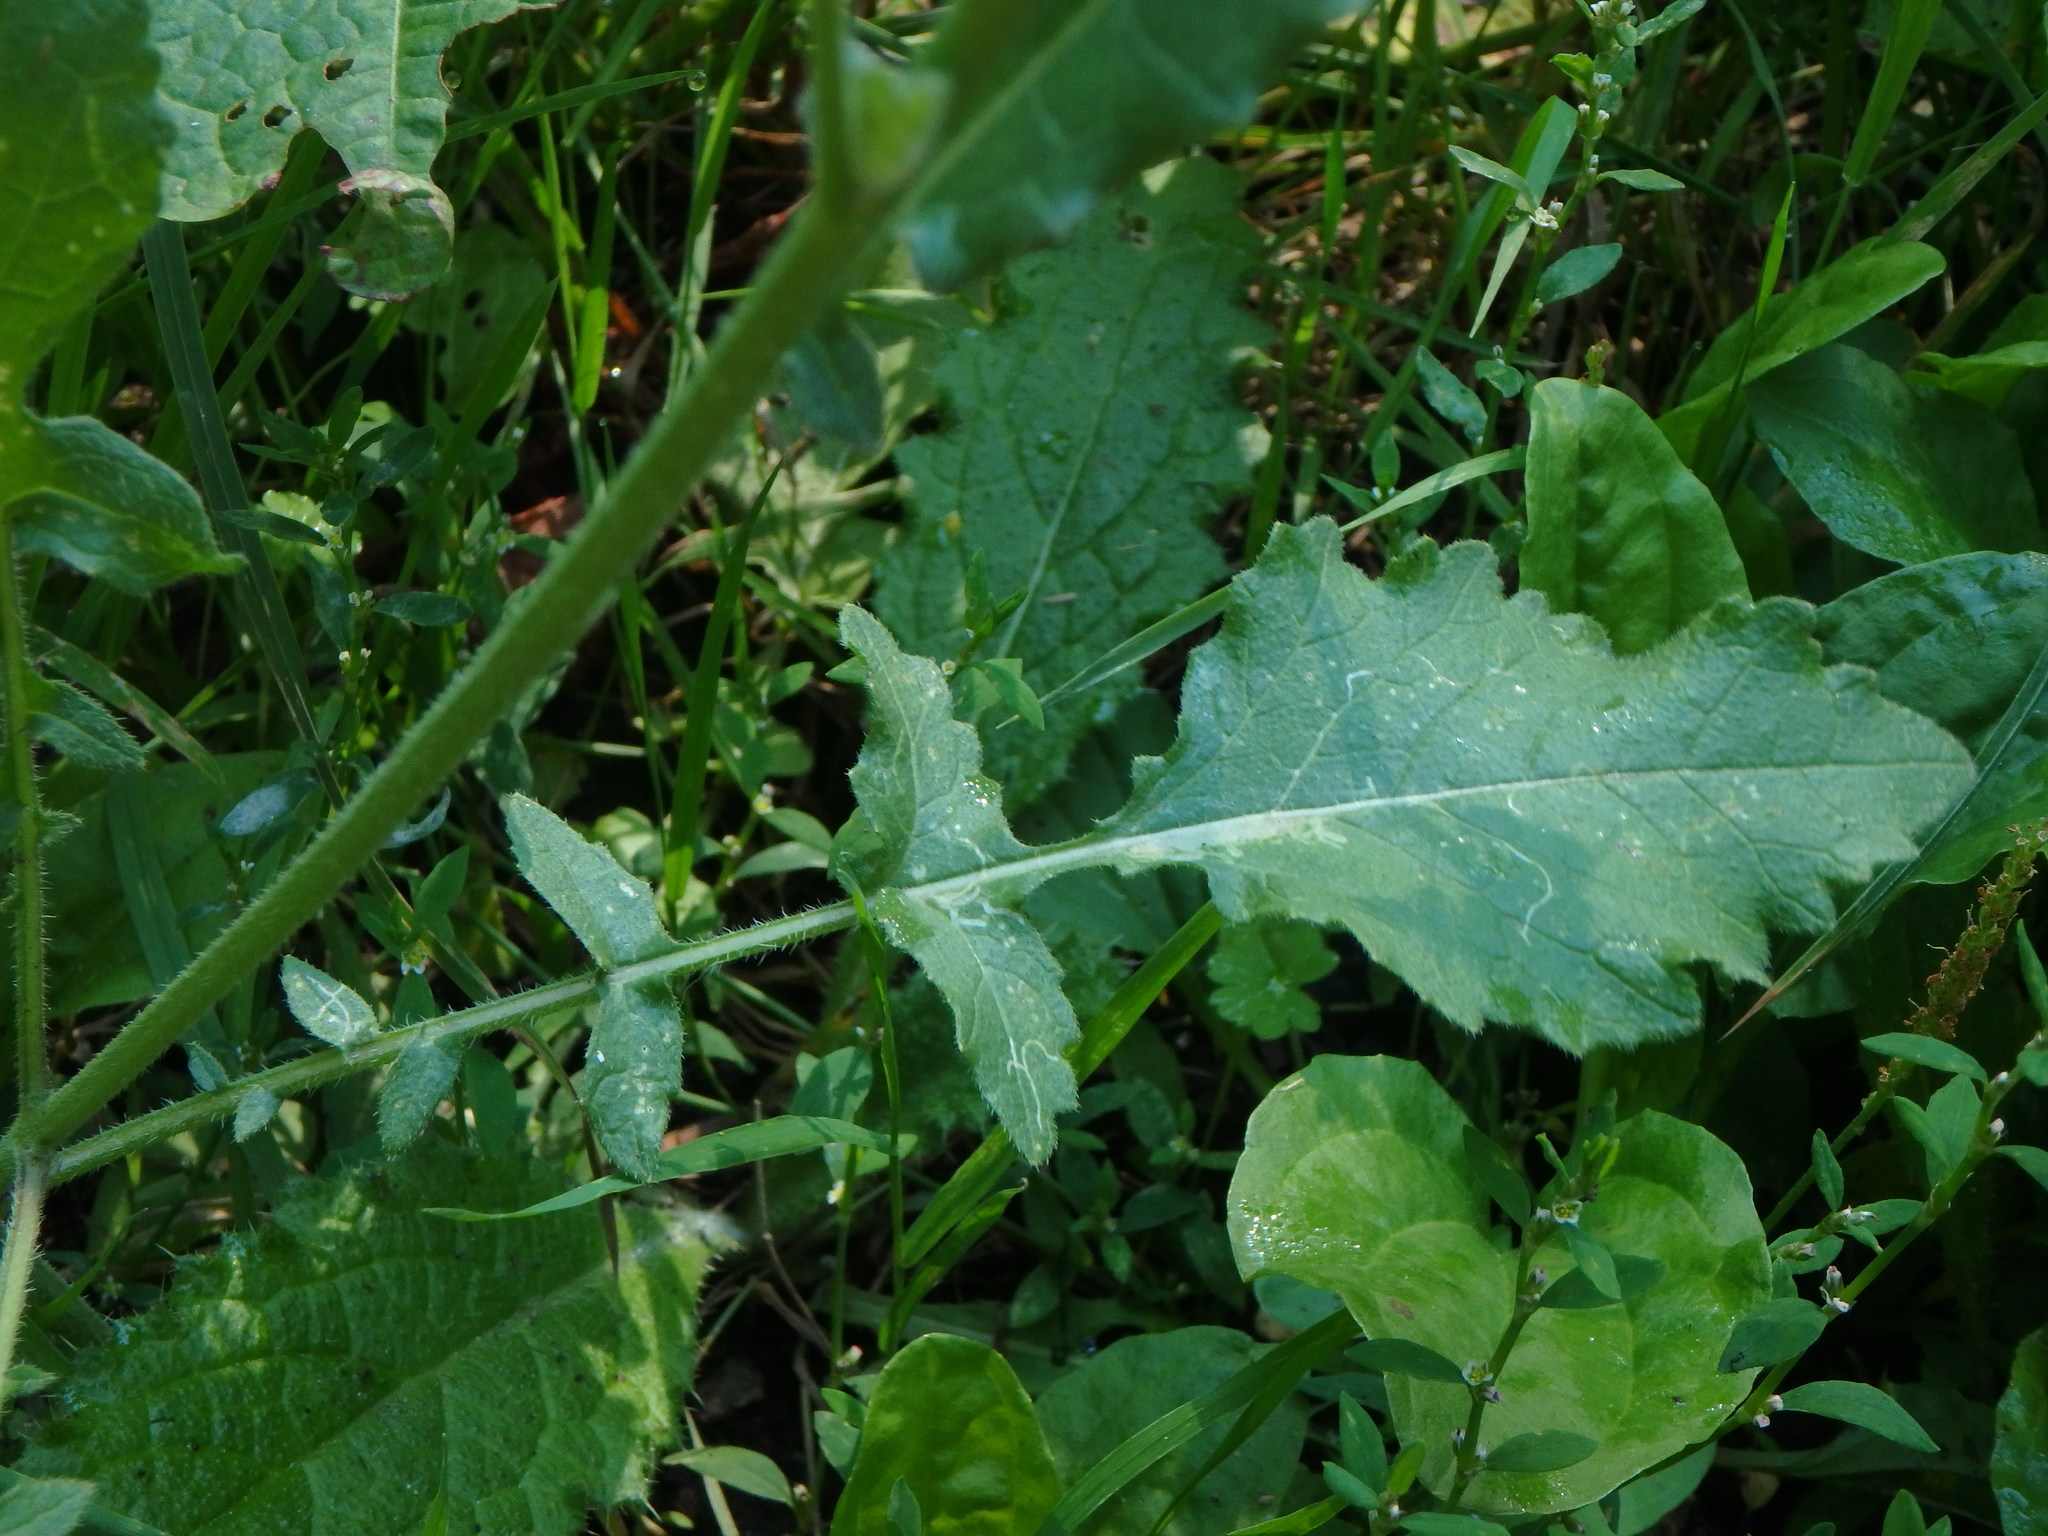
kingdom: Plantae
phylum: Tracheophyta
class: Magnoliopsida
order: Brassicales
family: Brassicaceae
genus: Hirschfeldia
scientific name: Hirschfeldia incana
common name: Hoary mustard
